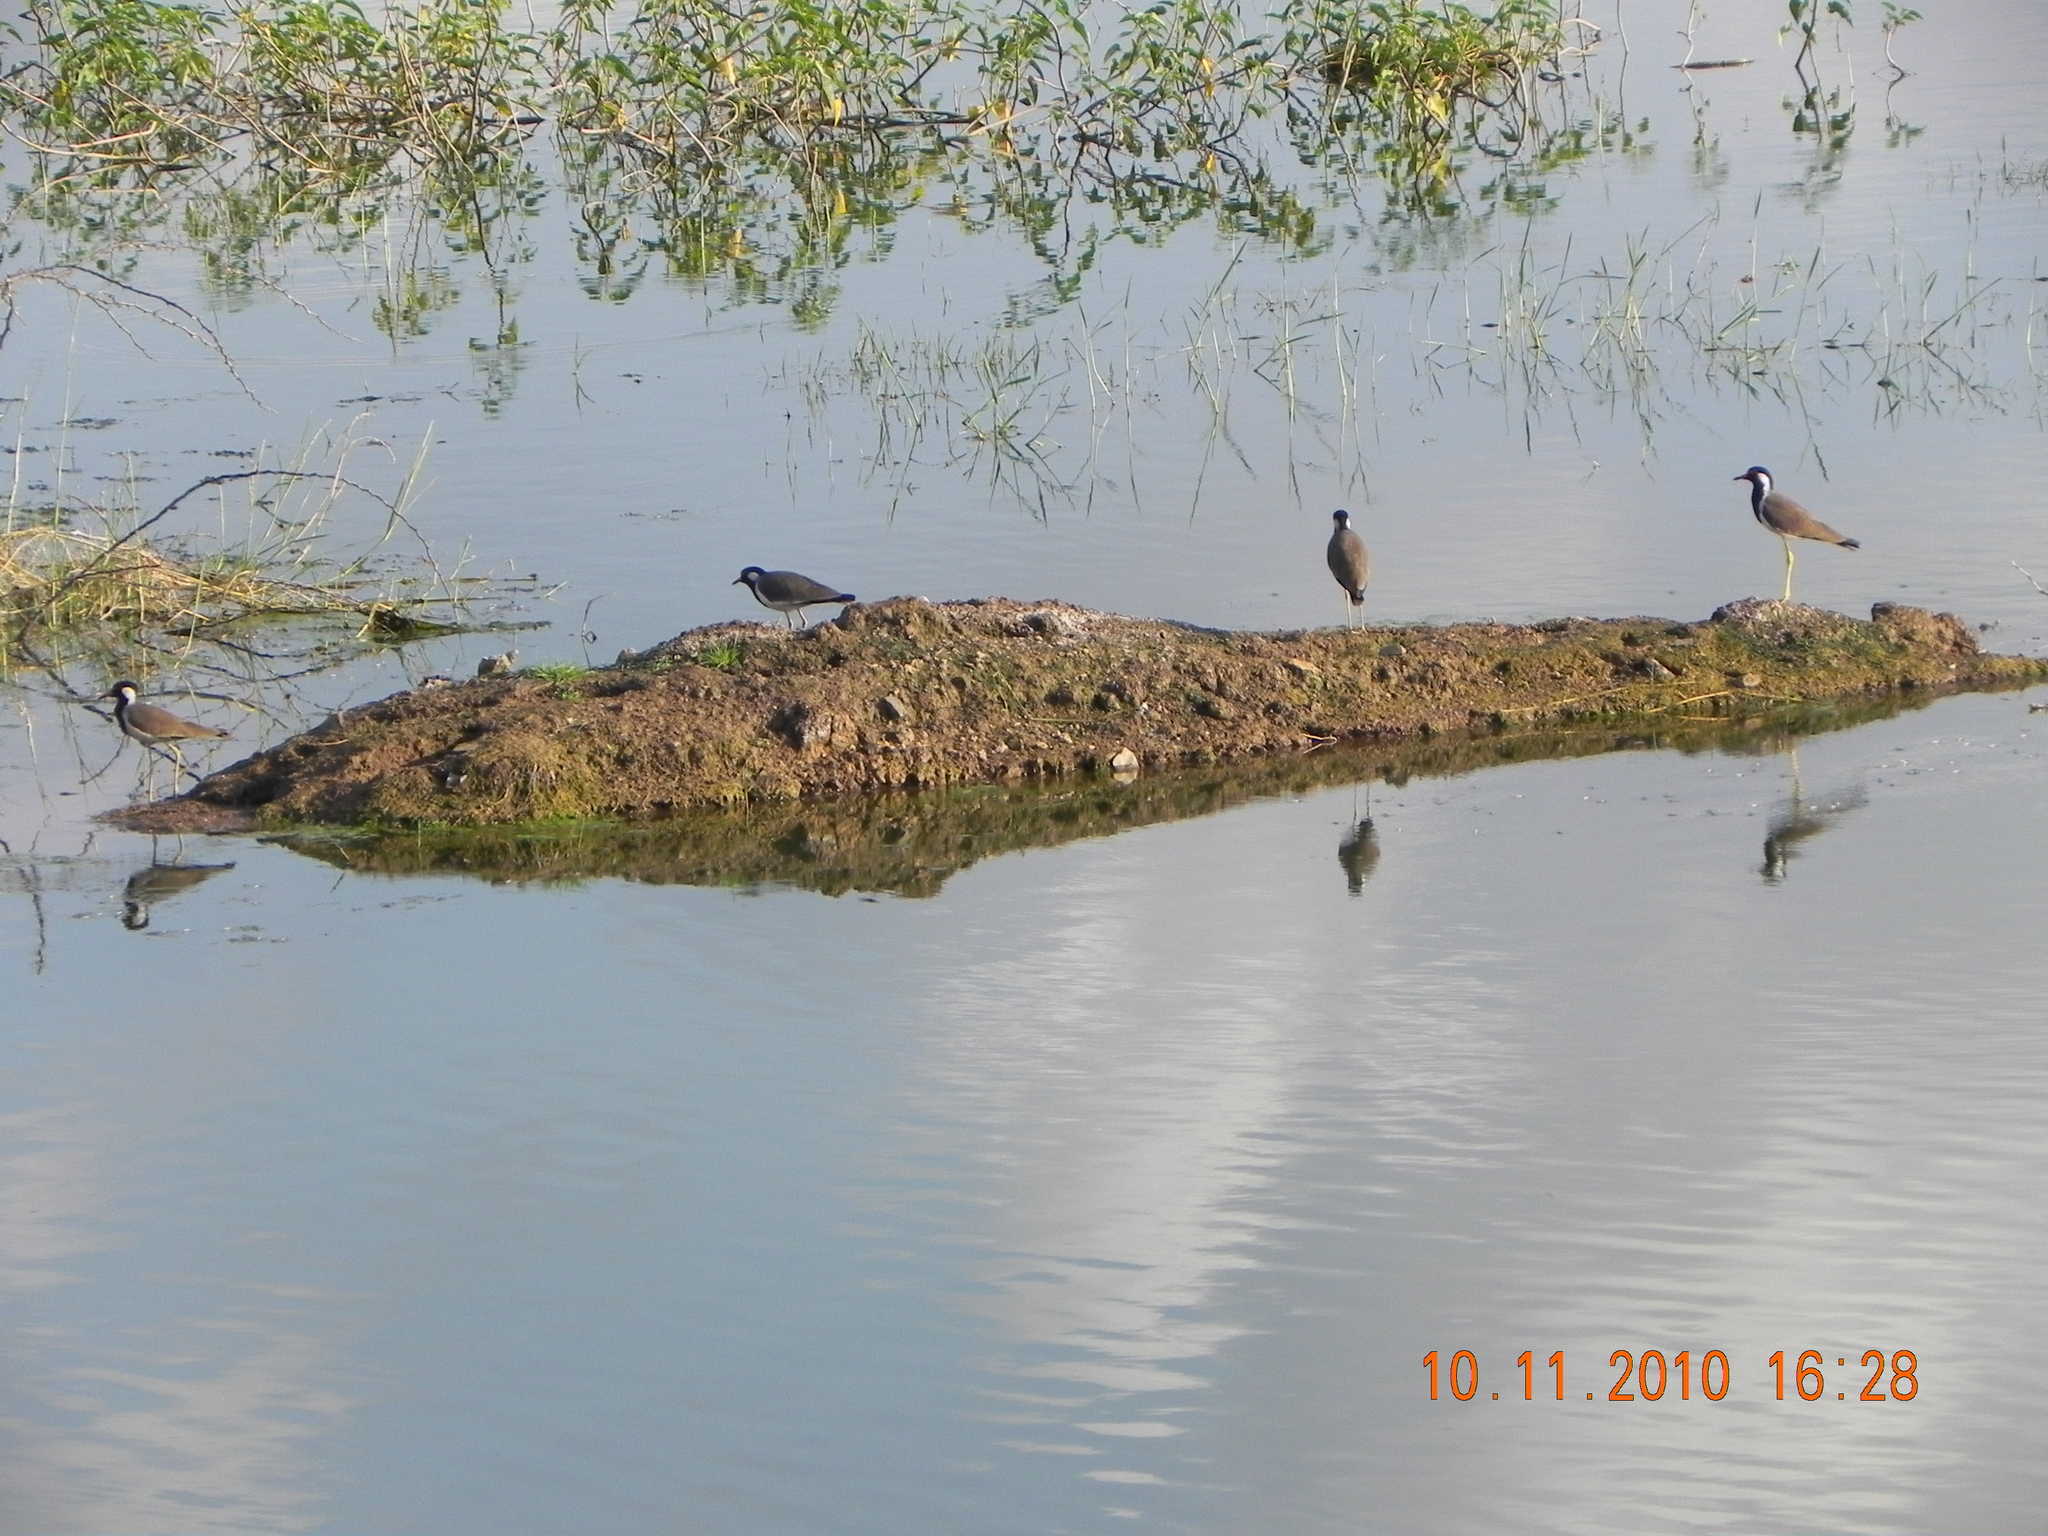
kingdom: Animalia
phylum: Chordata
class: Aves
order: Charadriiformes
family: Charadriidae
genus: Vanellus
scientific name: Vanellus indicus
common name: Red-wattled lapwing
